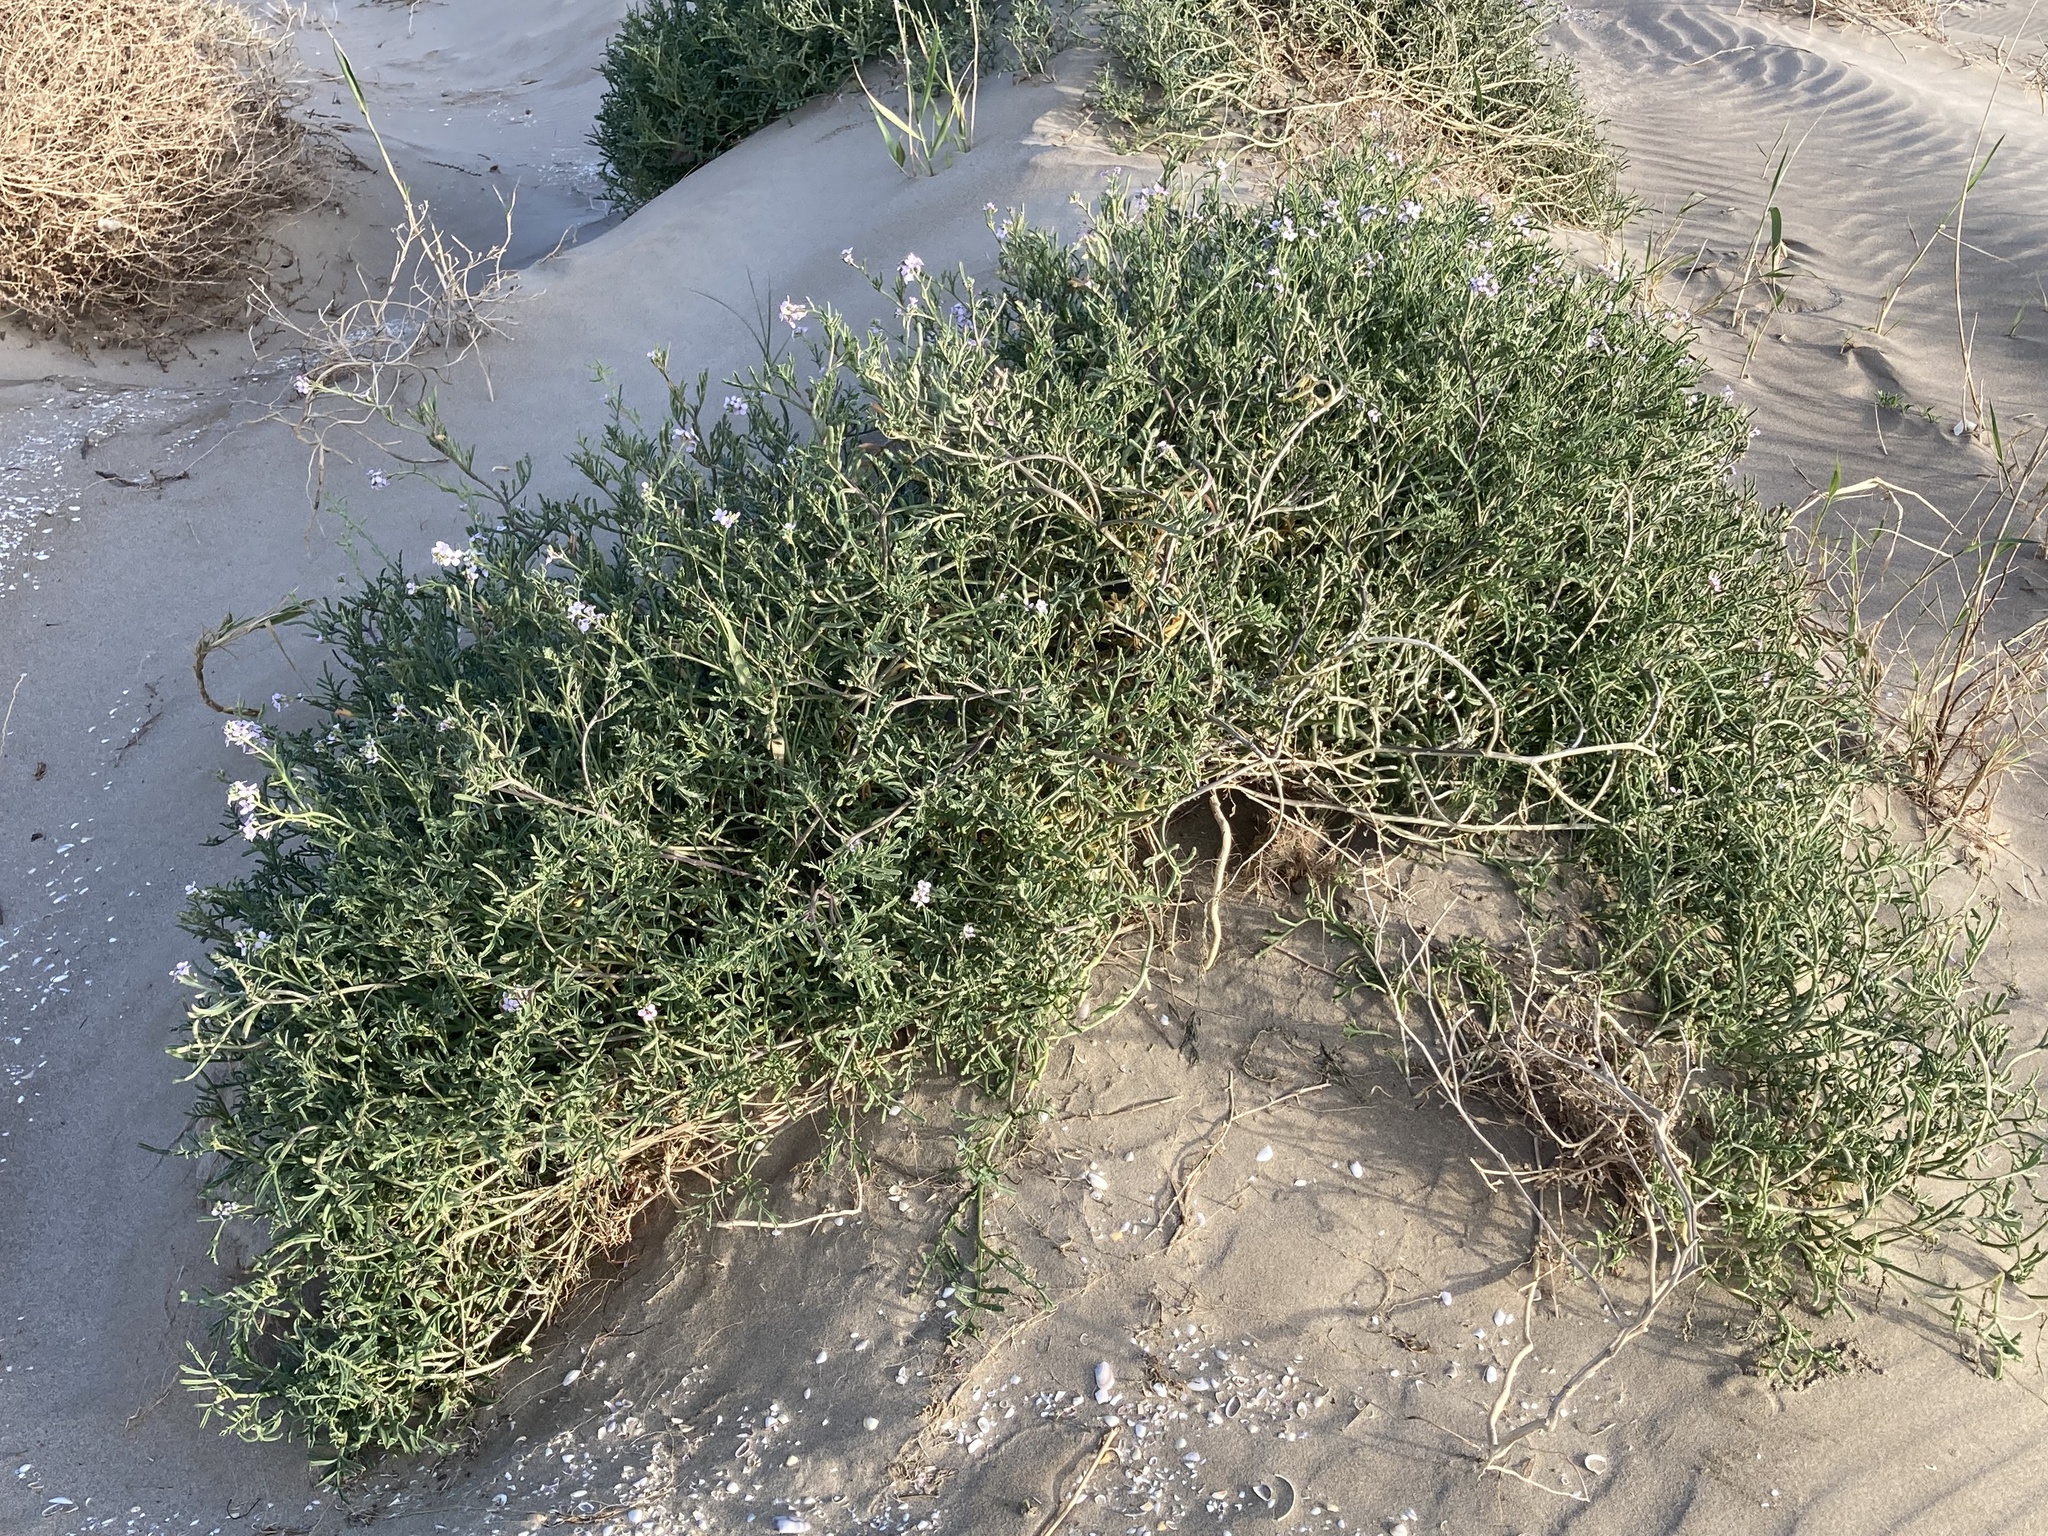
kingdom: Plantae
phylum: Tracheophyta
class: Magnoliopsida
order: Brassicales
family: Brassicaceae
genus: Cakile
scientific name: Cakile maritima
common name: Sea rocket
